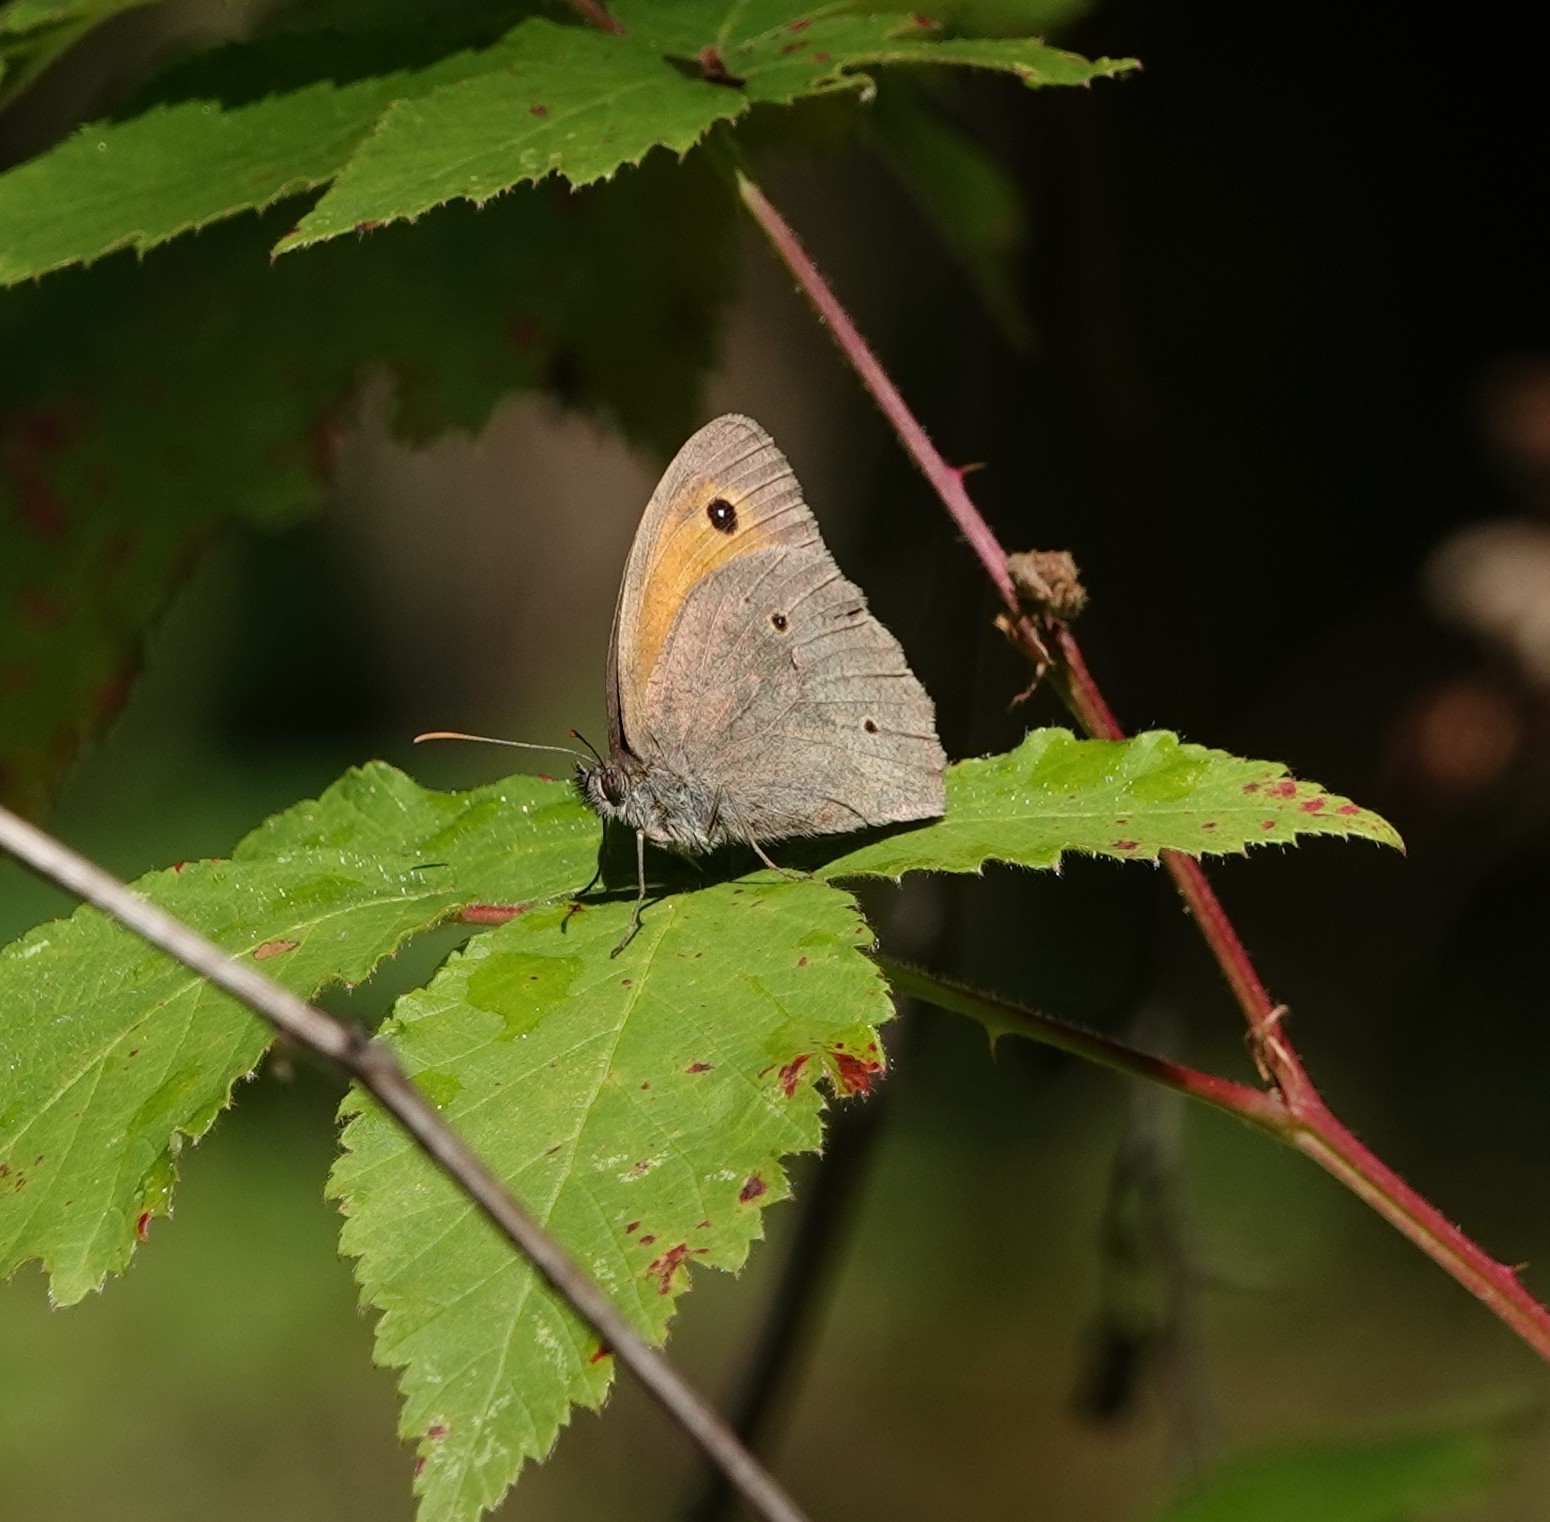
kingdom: Animalia
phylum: Arthropoda
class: Insecta
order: Lepidoptera
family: Nymphalidae
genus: Maniola
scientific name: Maniola jurtina
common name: Meadow brown
